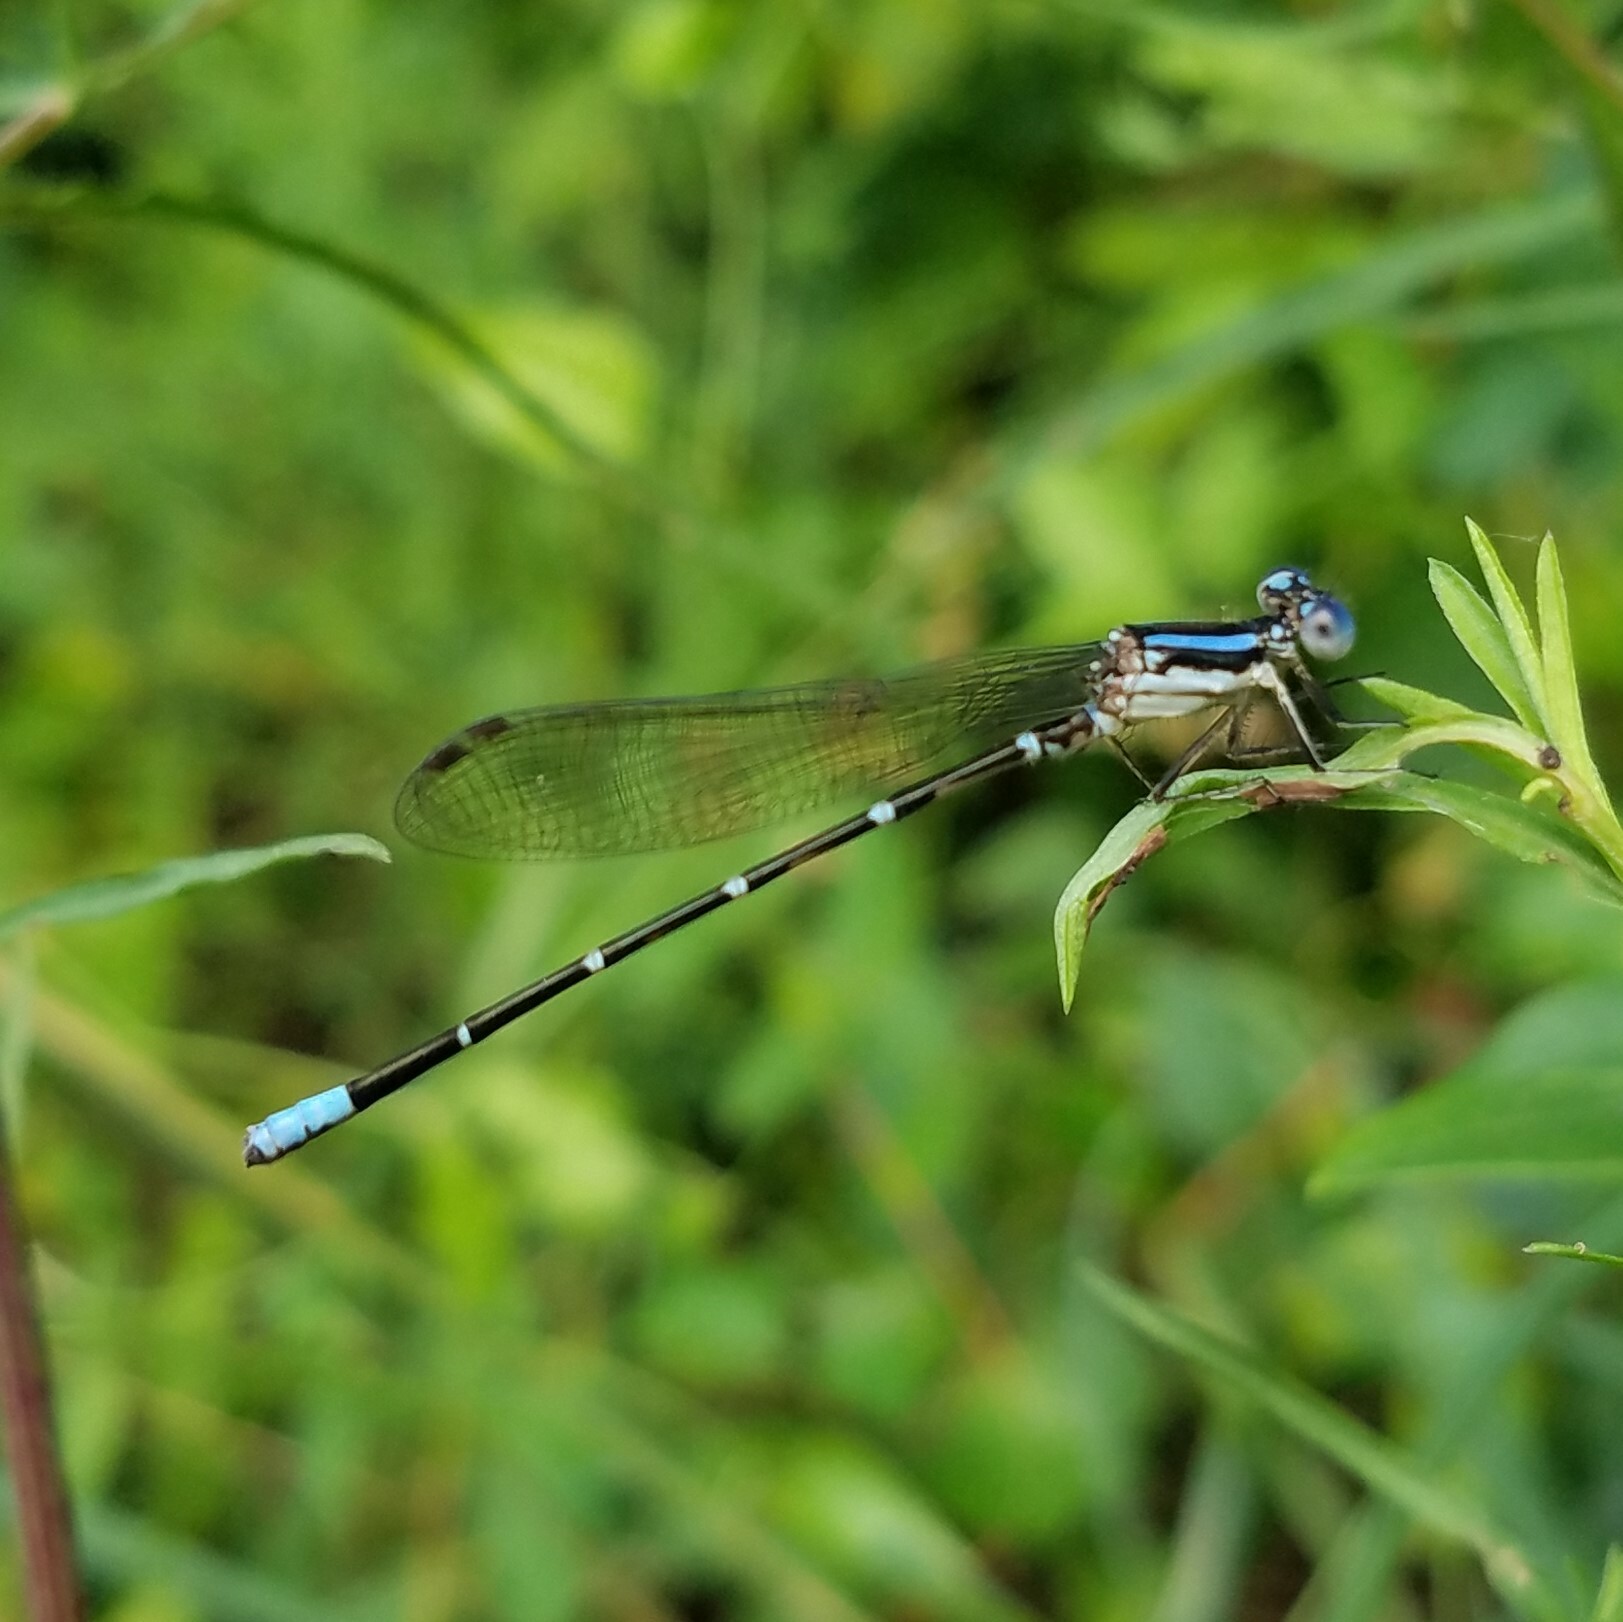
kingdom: Animalia
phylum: Arthropoda
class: Insecta
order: Odonata
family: Coenagrionidae
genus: Argia
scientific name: Argia sedula
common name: Blue-ringed dancer
